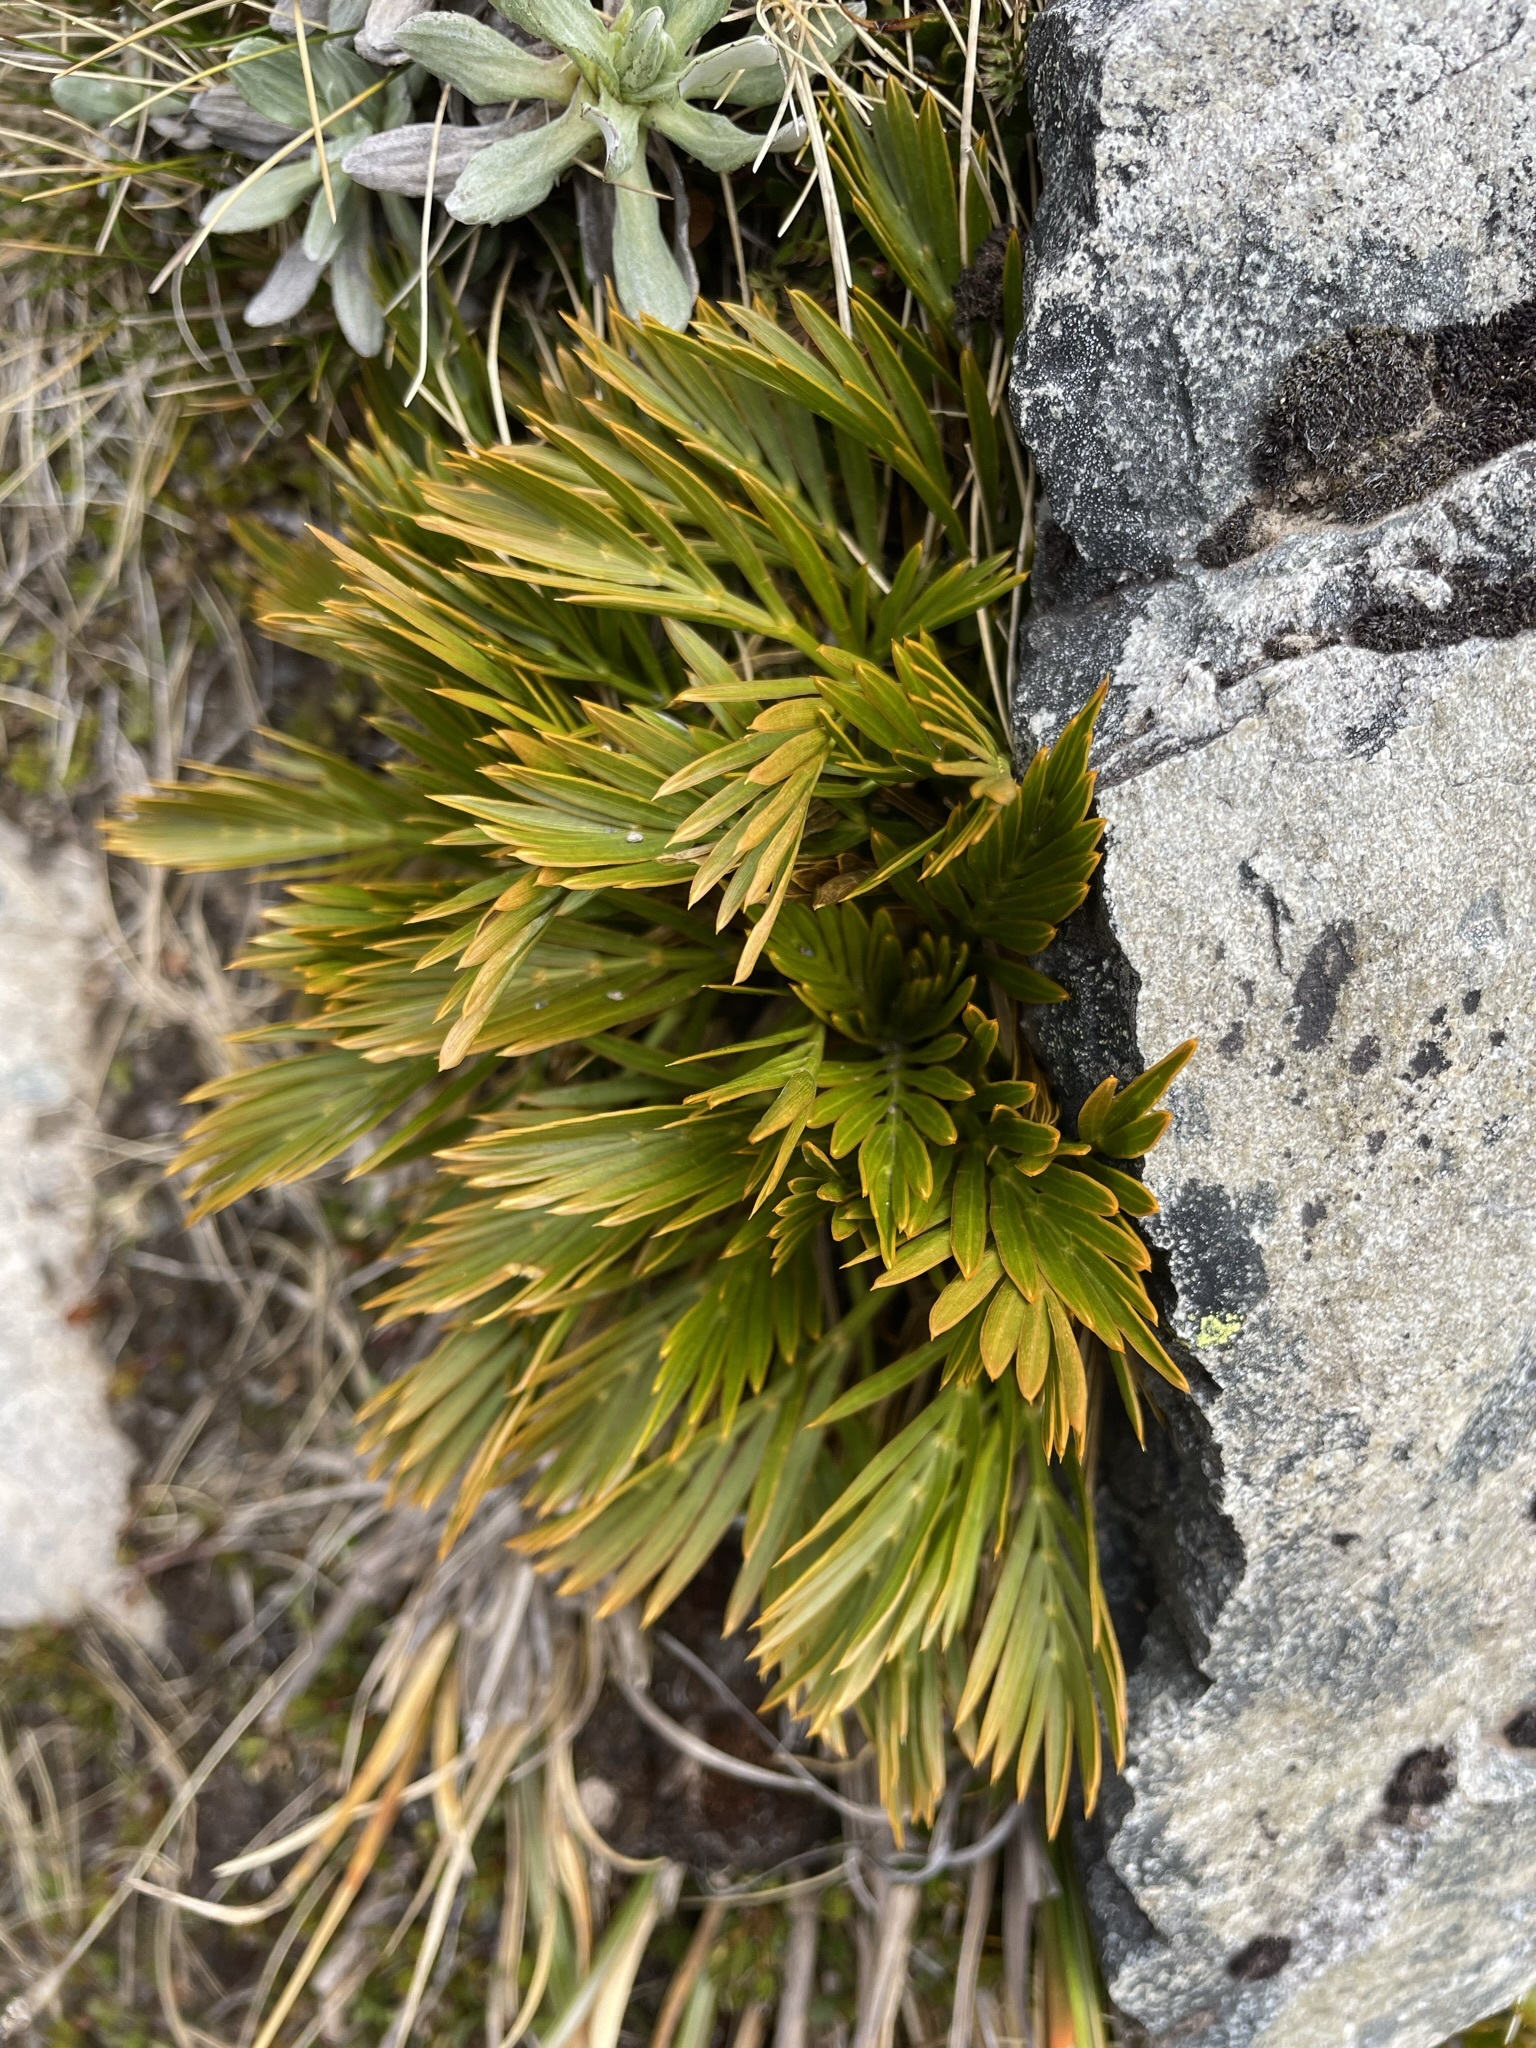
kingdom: Plantae
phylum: Tracheophyta
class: Magnoliopsida
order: Apiales
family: Apiaceae
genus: Aciphylla
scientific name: Aciphylla similis
